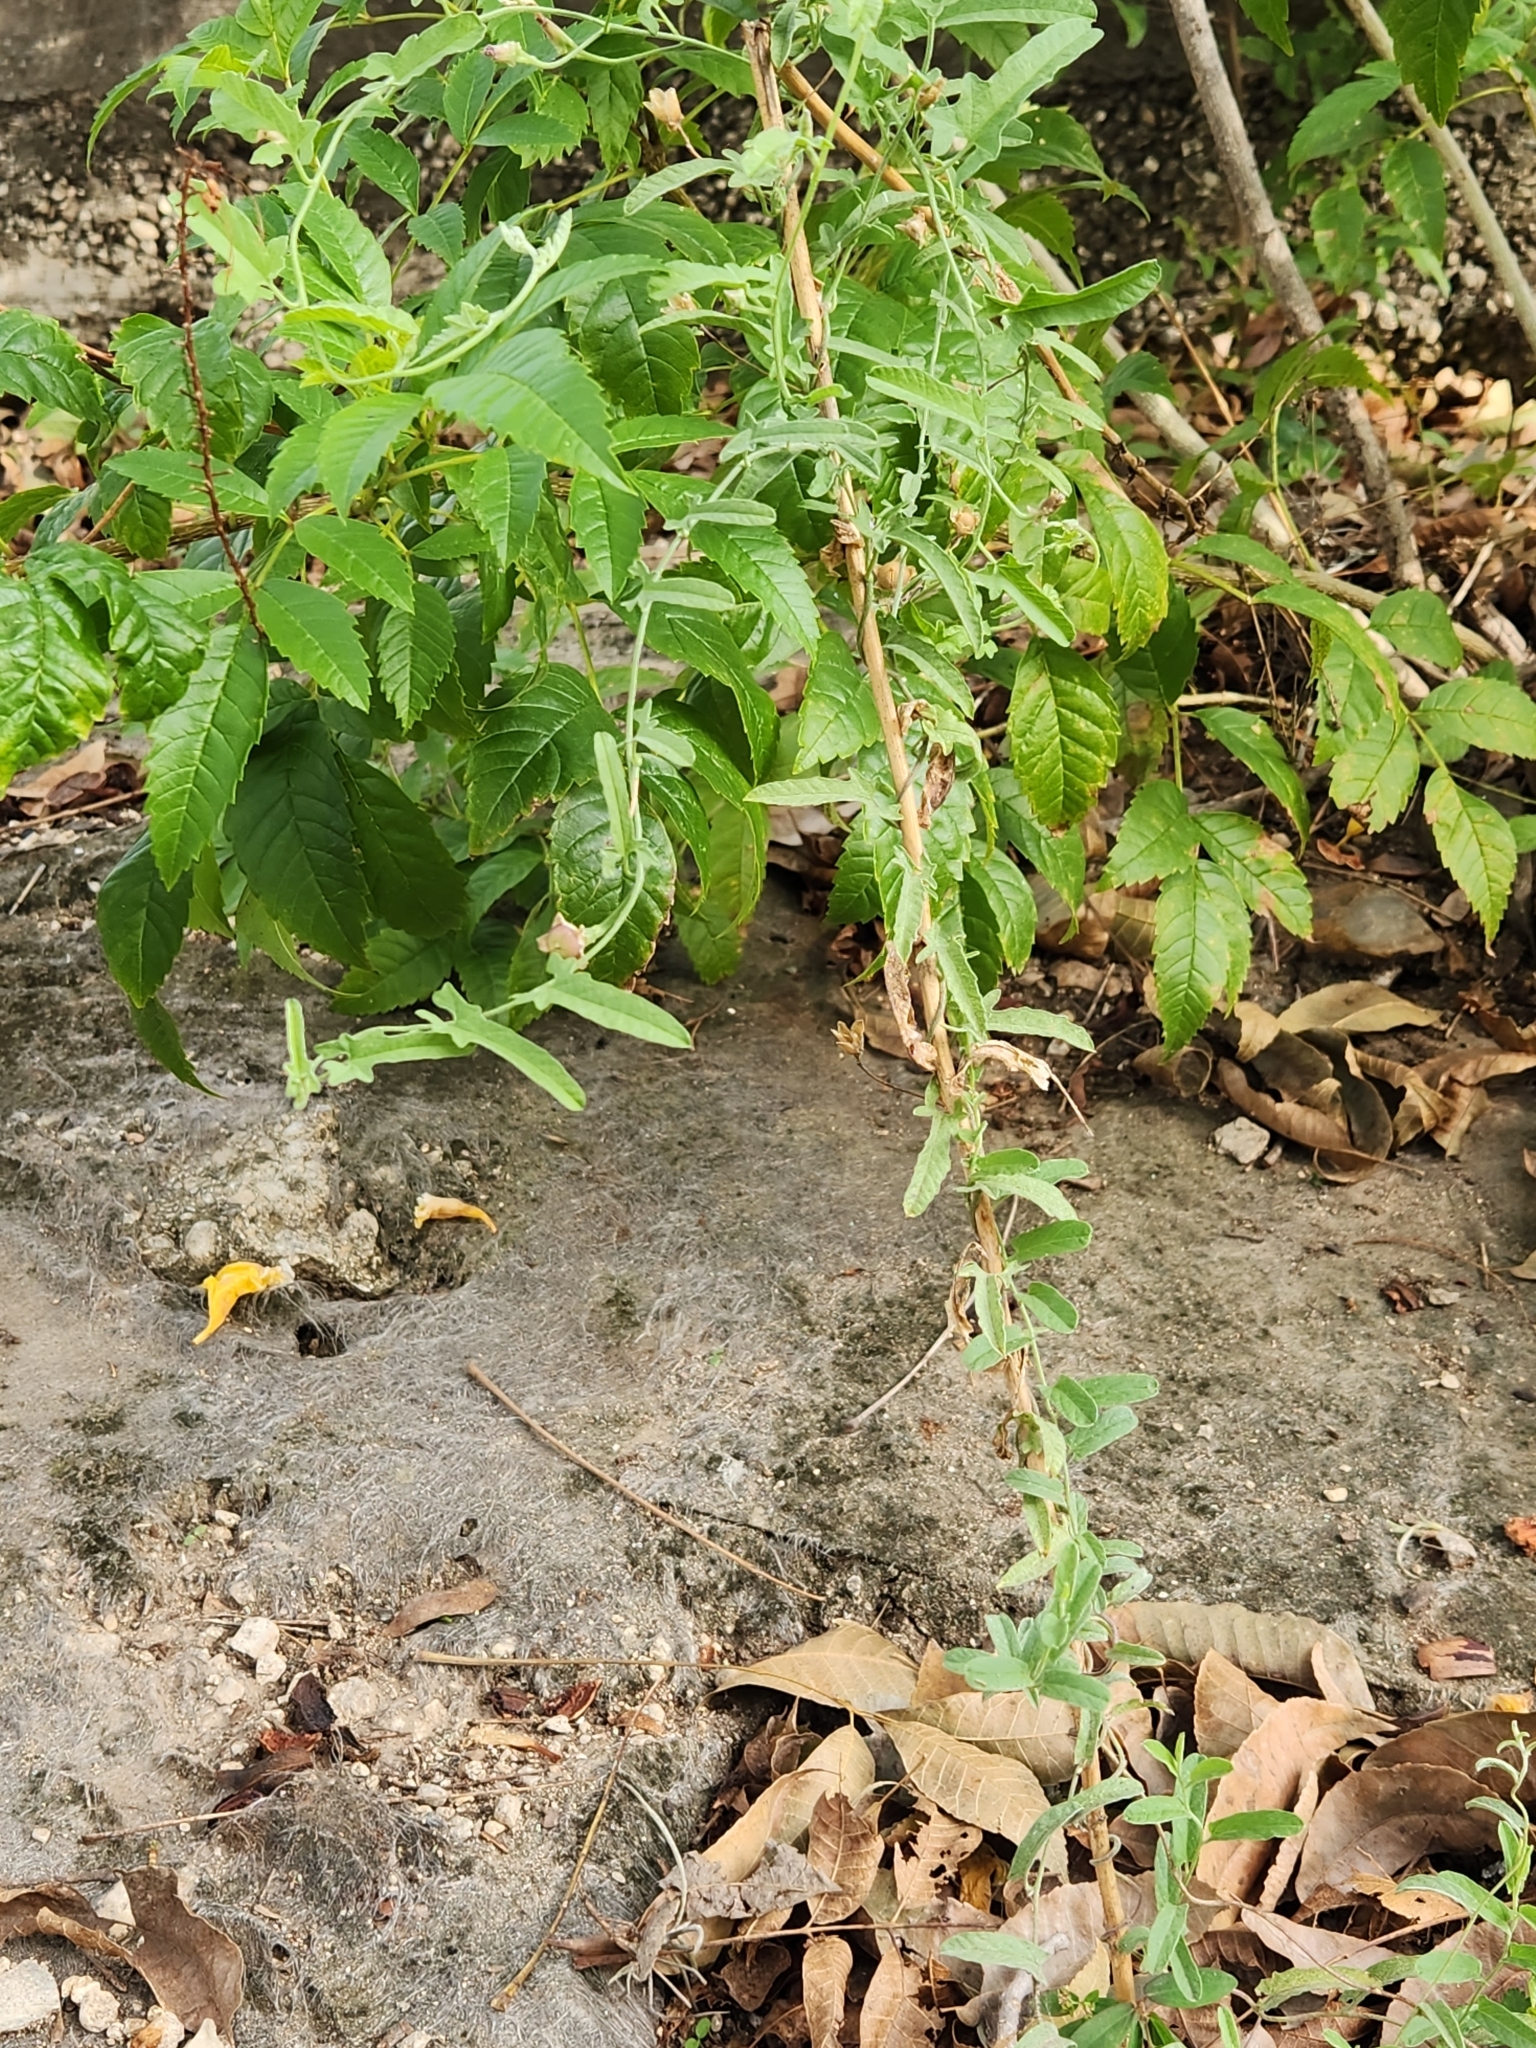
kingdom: Plantae
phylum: Tracheophyta
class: Magnoliopsida
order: Solanales
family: Convolvulaceae
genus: Convolvulus
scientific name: Convolvulus equitans
